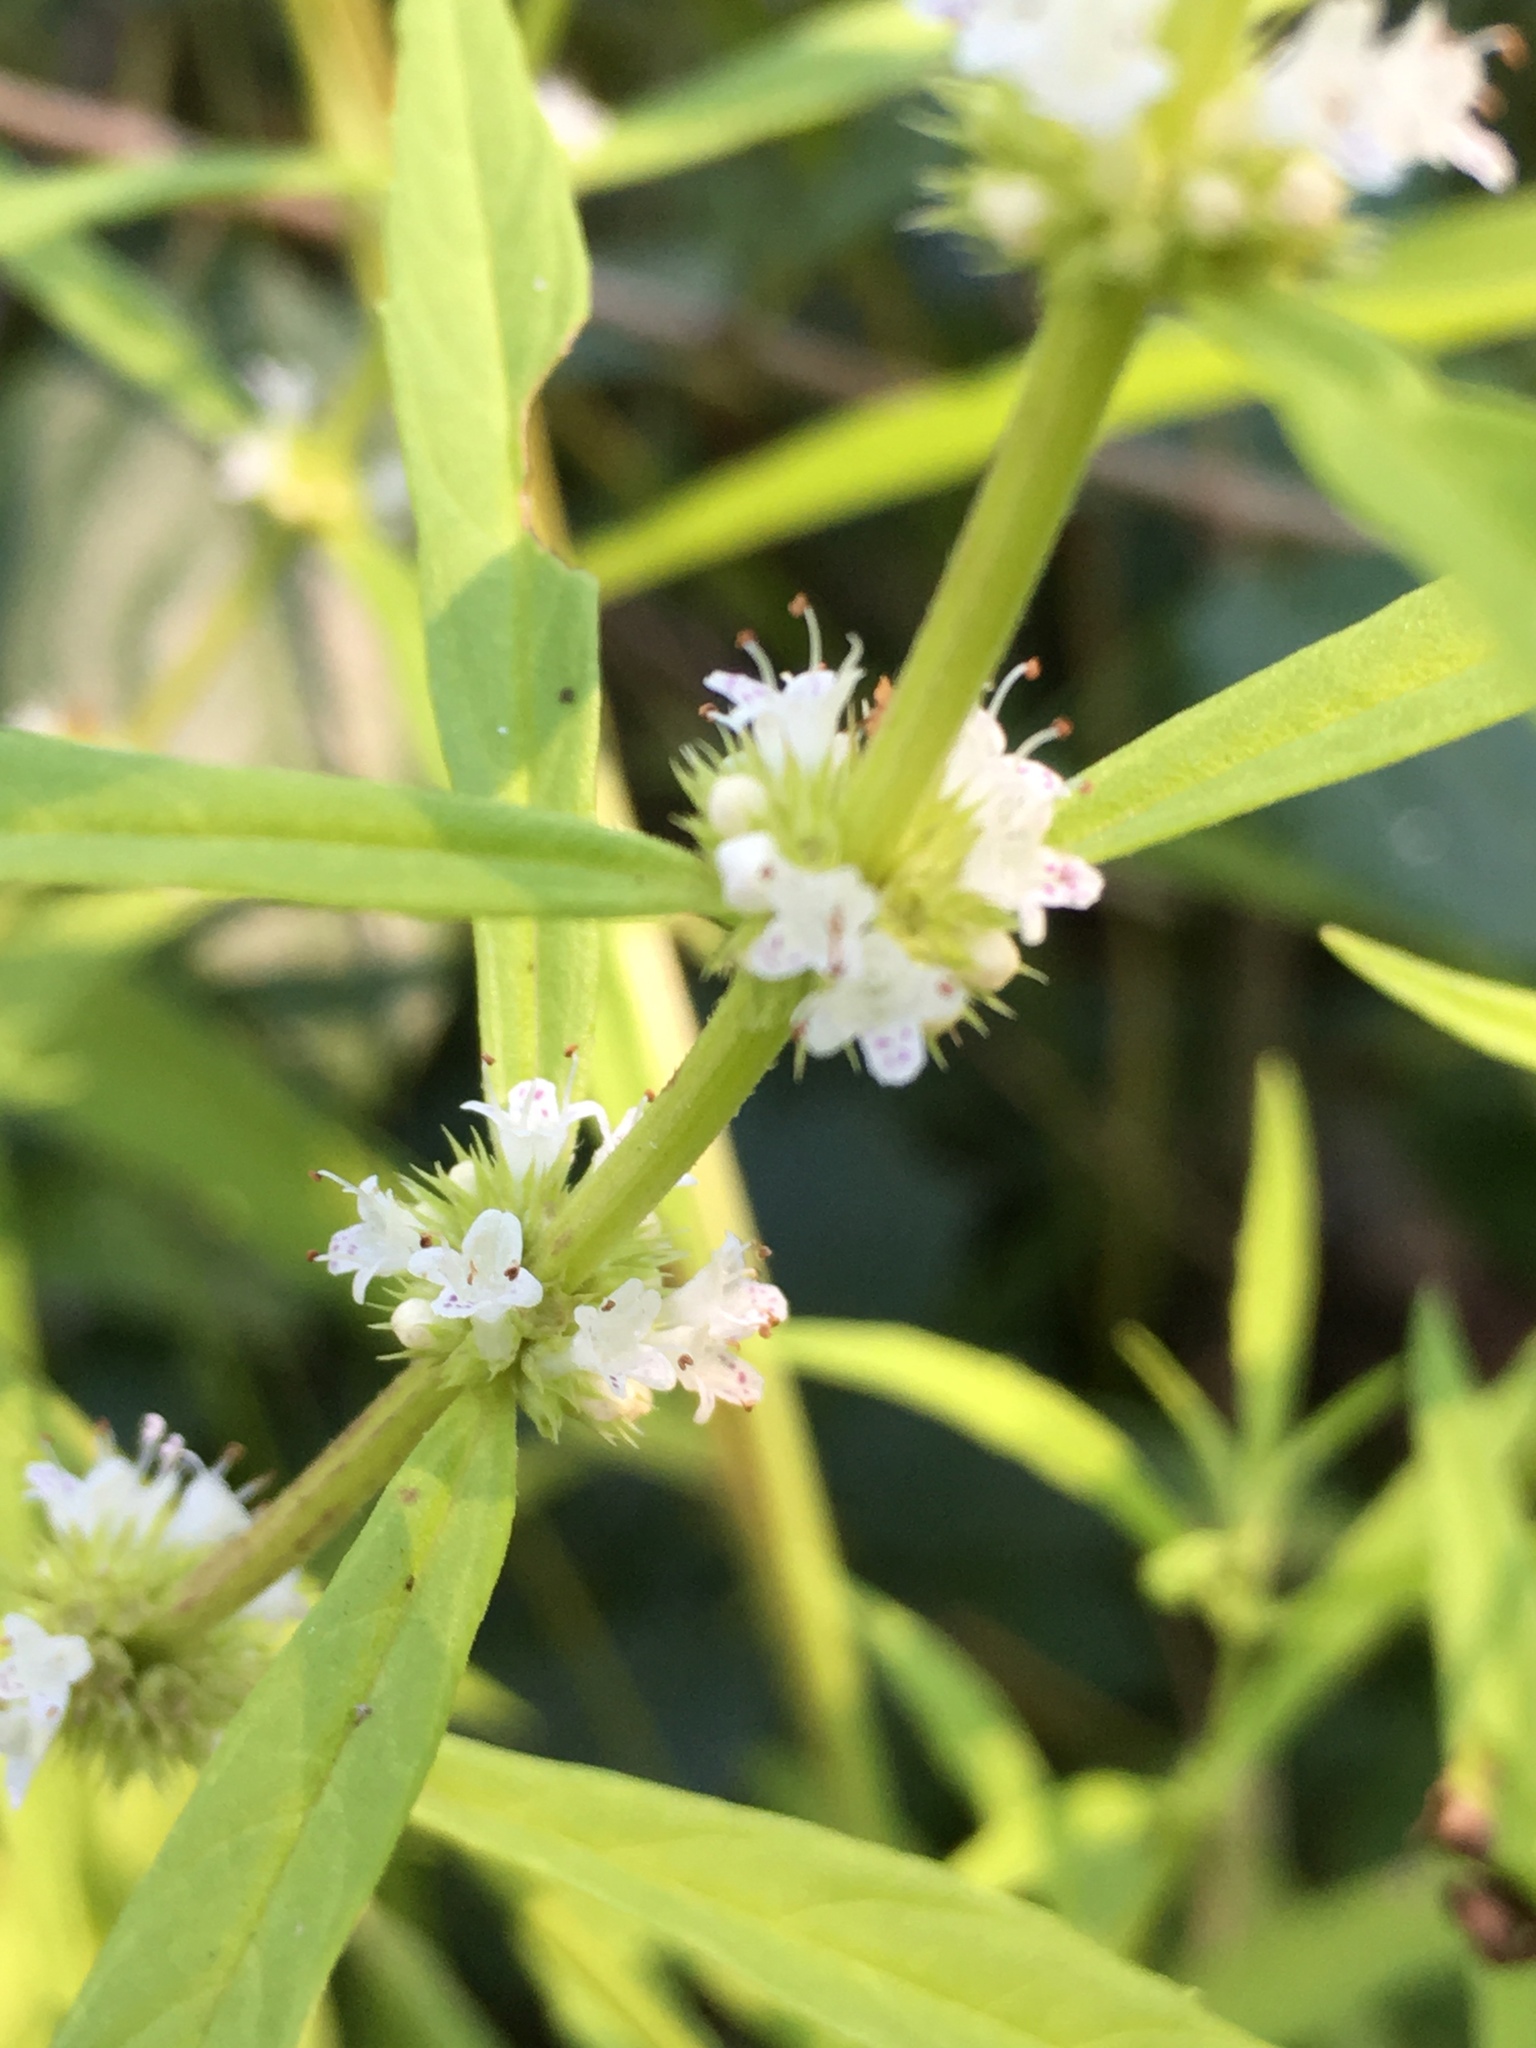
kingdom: Plantae
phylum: Tracheophyta
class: Magnoliopsida
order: Lamiales
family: Lamiaceae
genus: Lycopus
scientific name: Lycopus americanus
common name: American bugleweed
